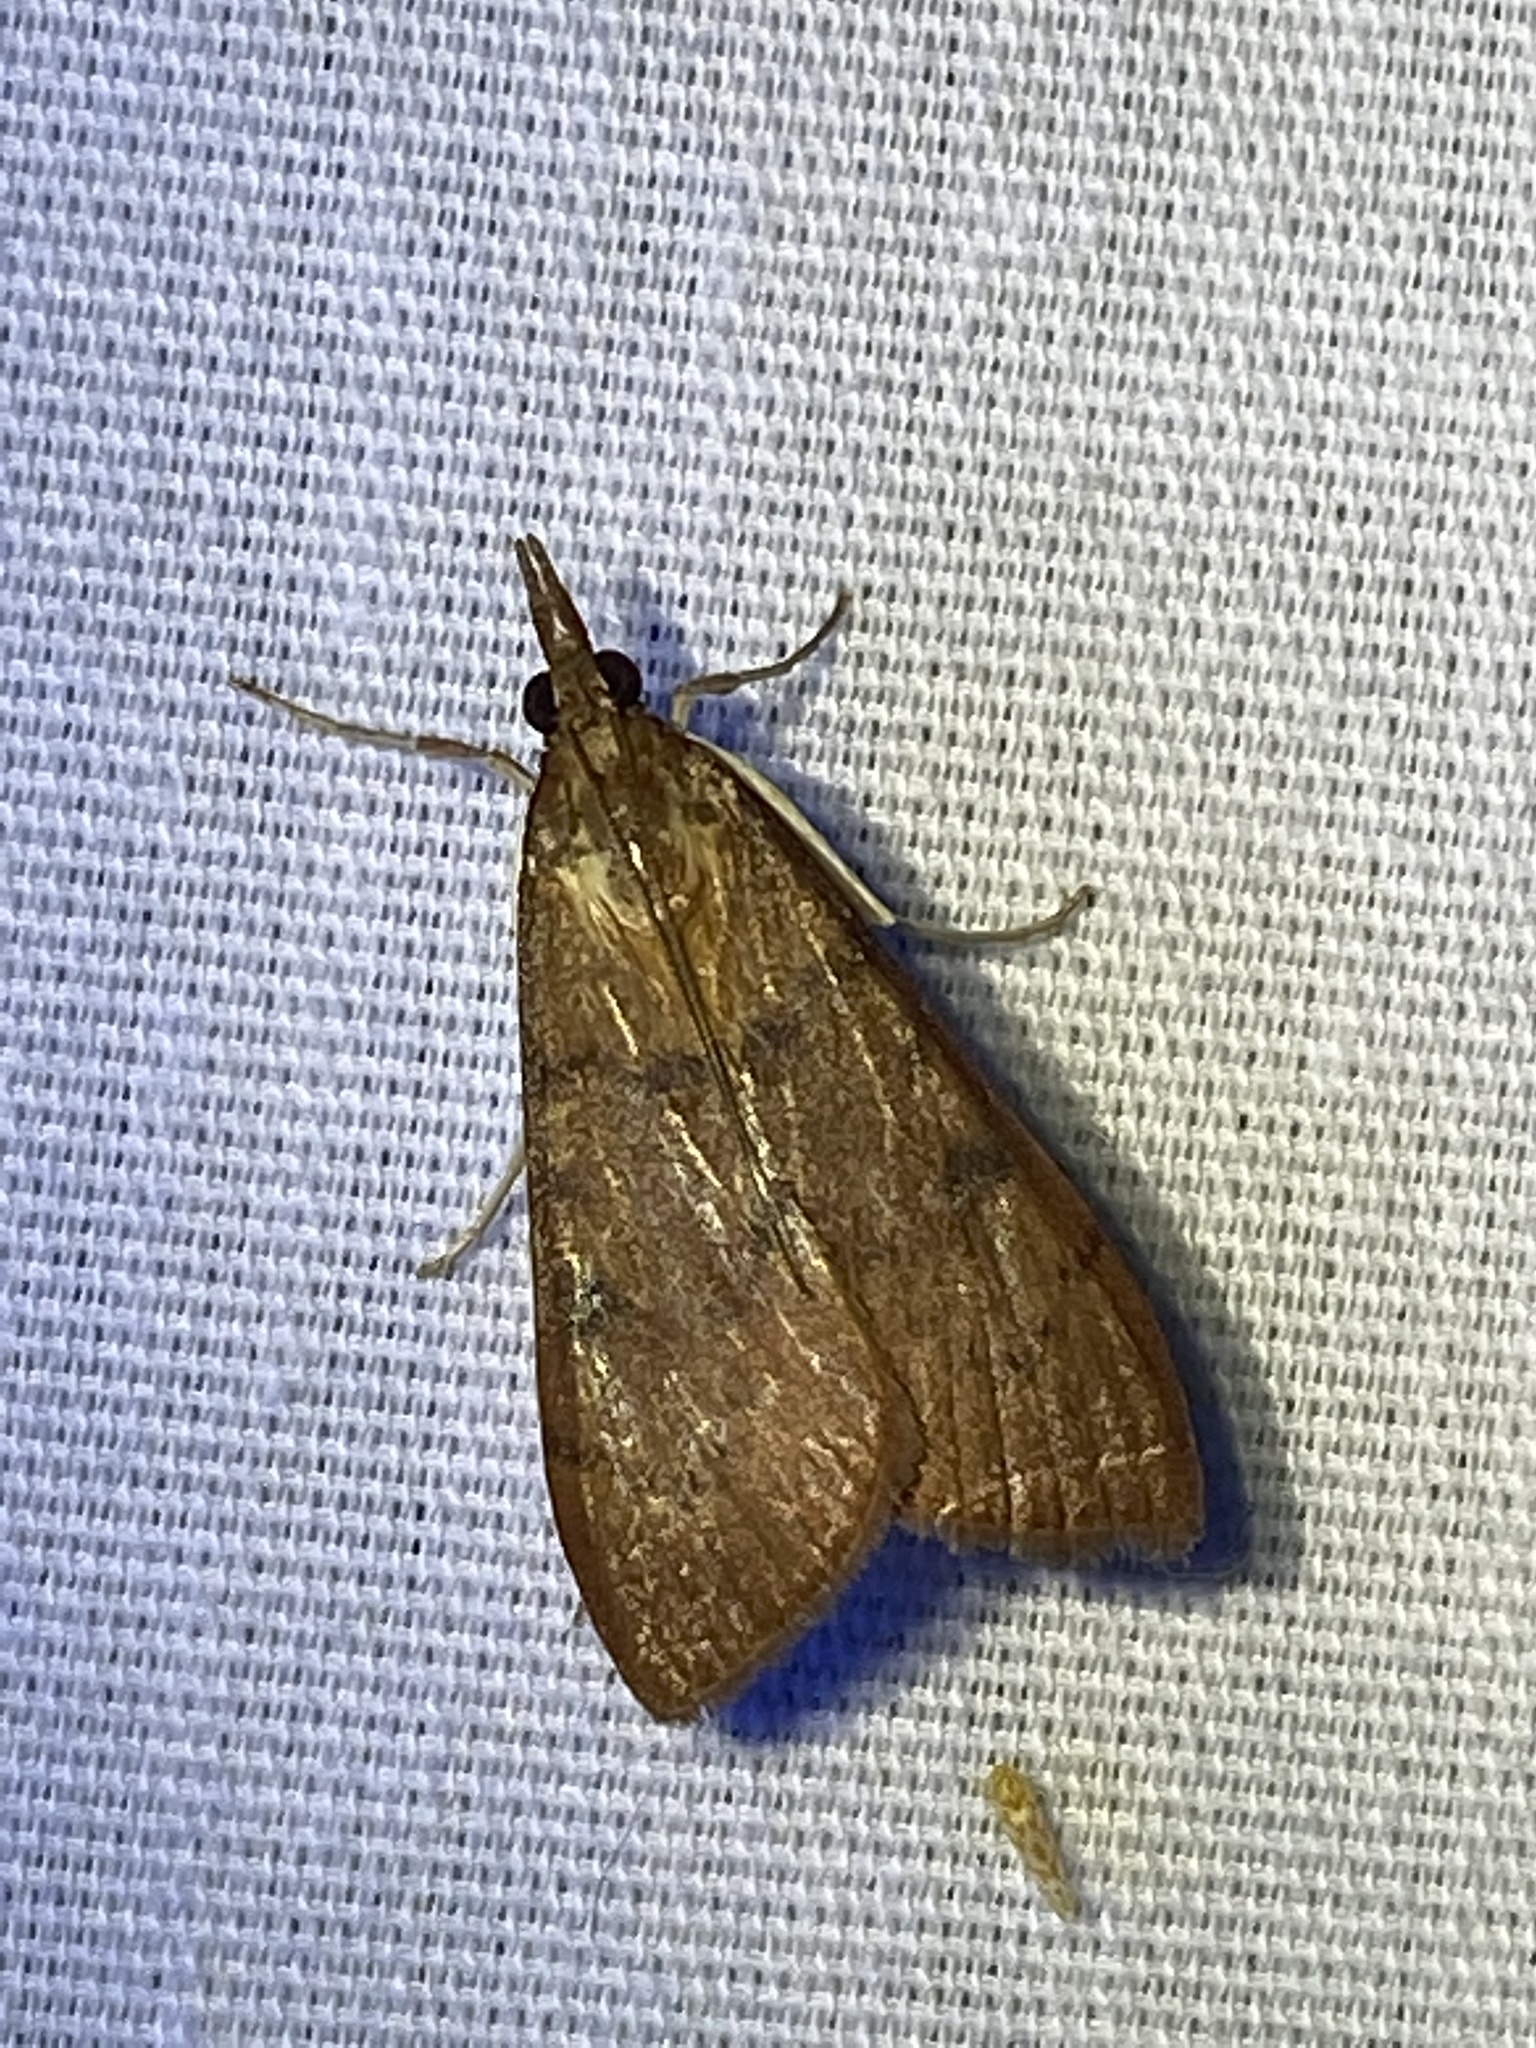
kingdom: Animalia
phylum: Arthropoda
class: Insecta
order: Lepidoptera
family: Crambidae
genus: Uresiphita
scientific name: Uresiphita reversalis
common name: Genista broom moth
